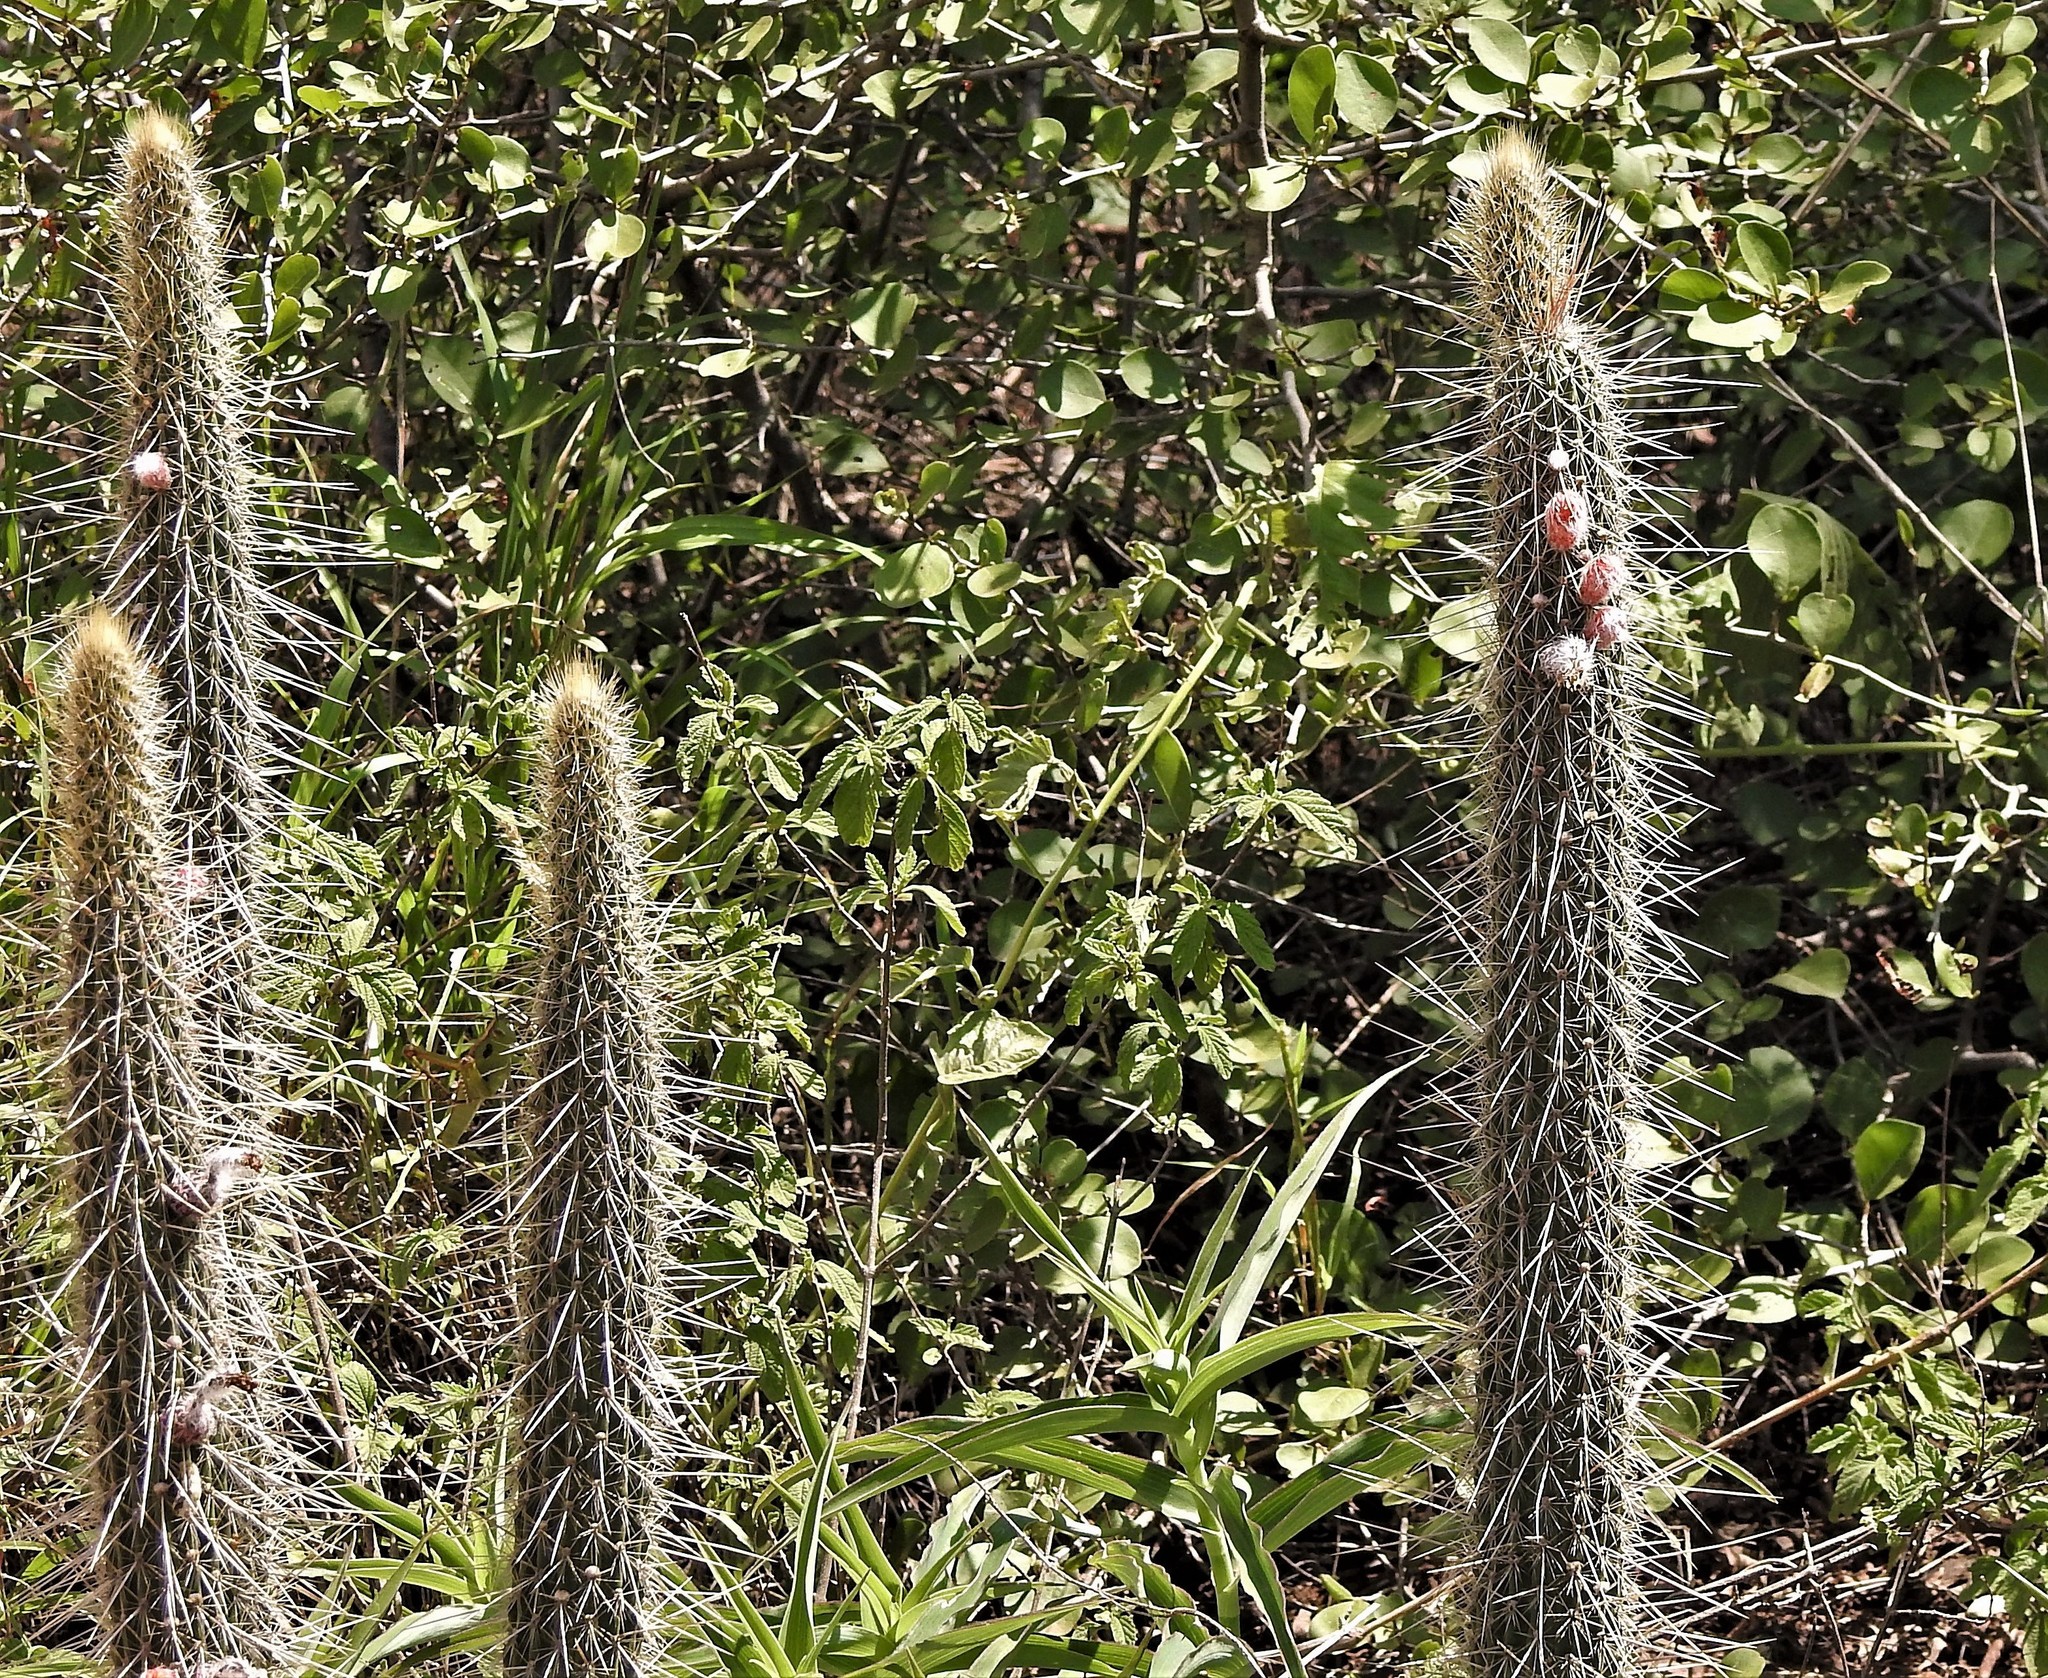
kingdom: Plantae
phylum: Tracheophyta
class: Magnoliopsida
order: Caryophyllales
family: Cactaceae
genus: Cleistocactus
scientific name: Cleistocactus baumannii
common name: Scarlet-bugler
